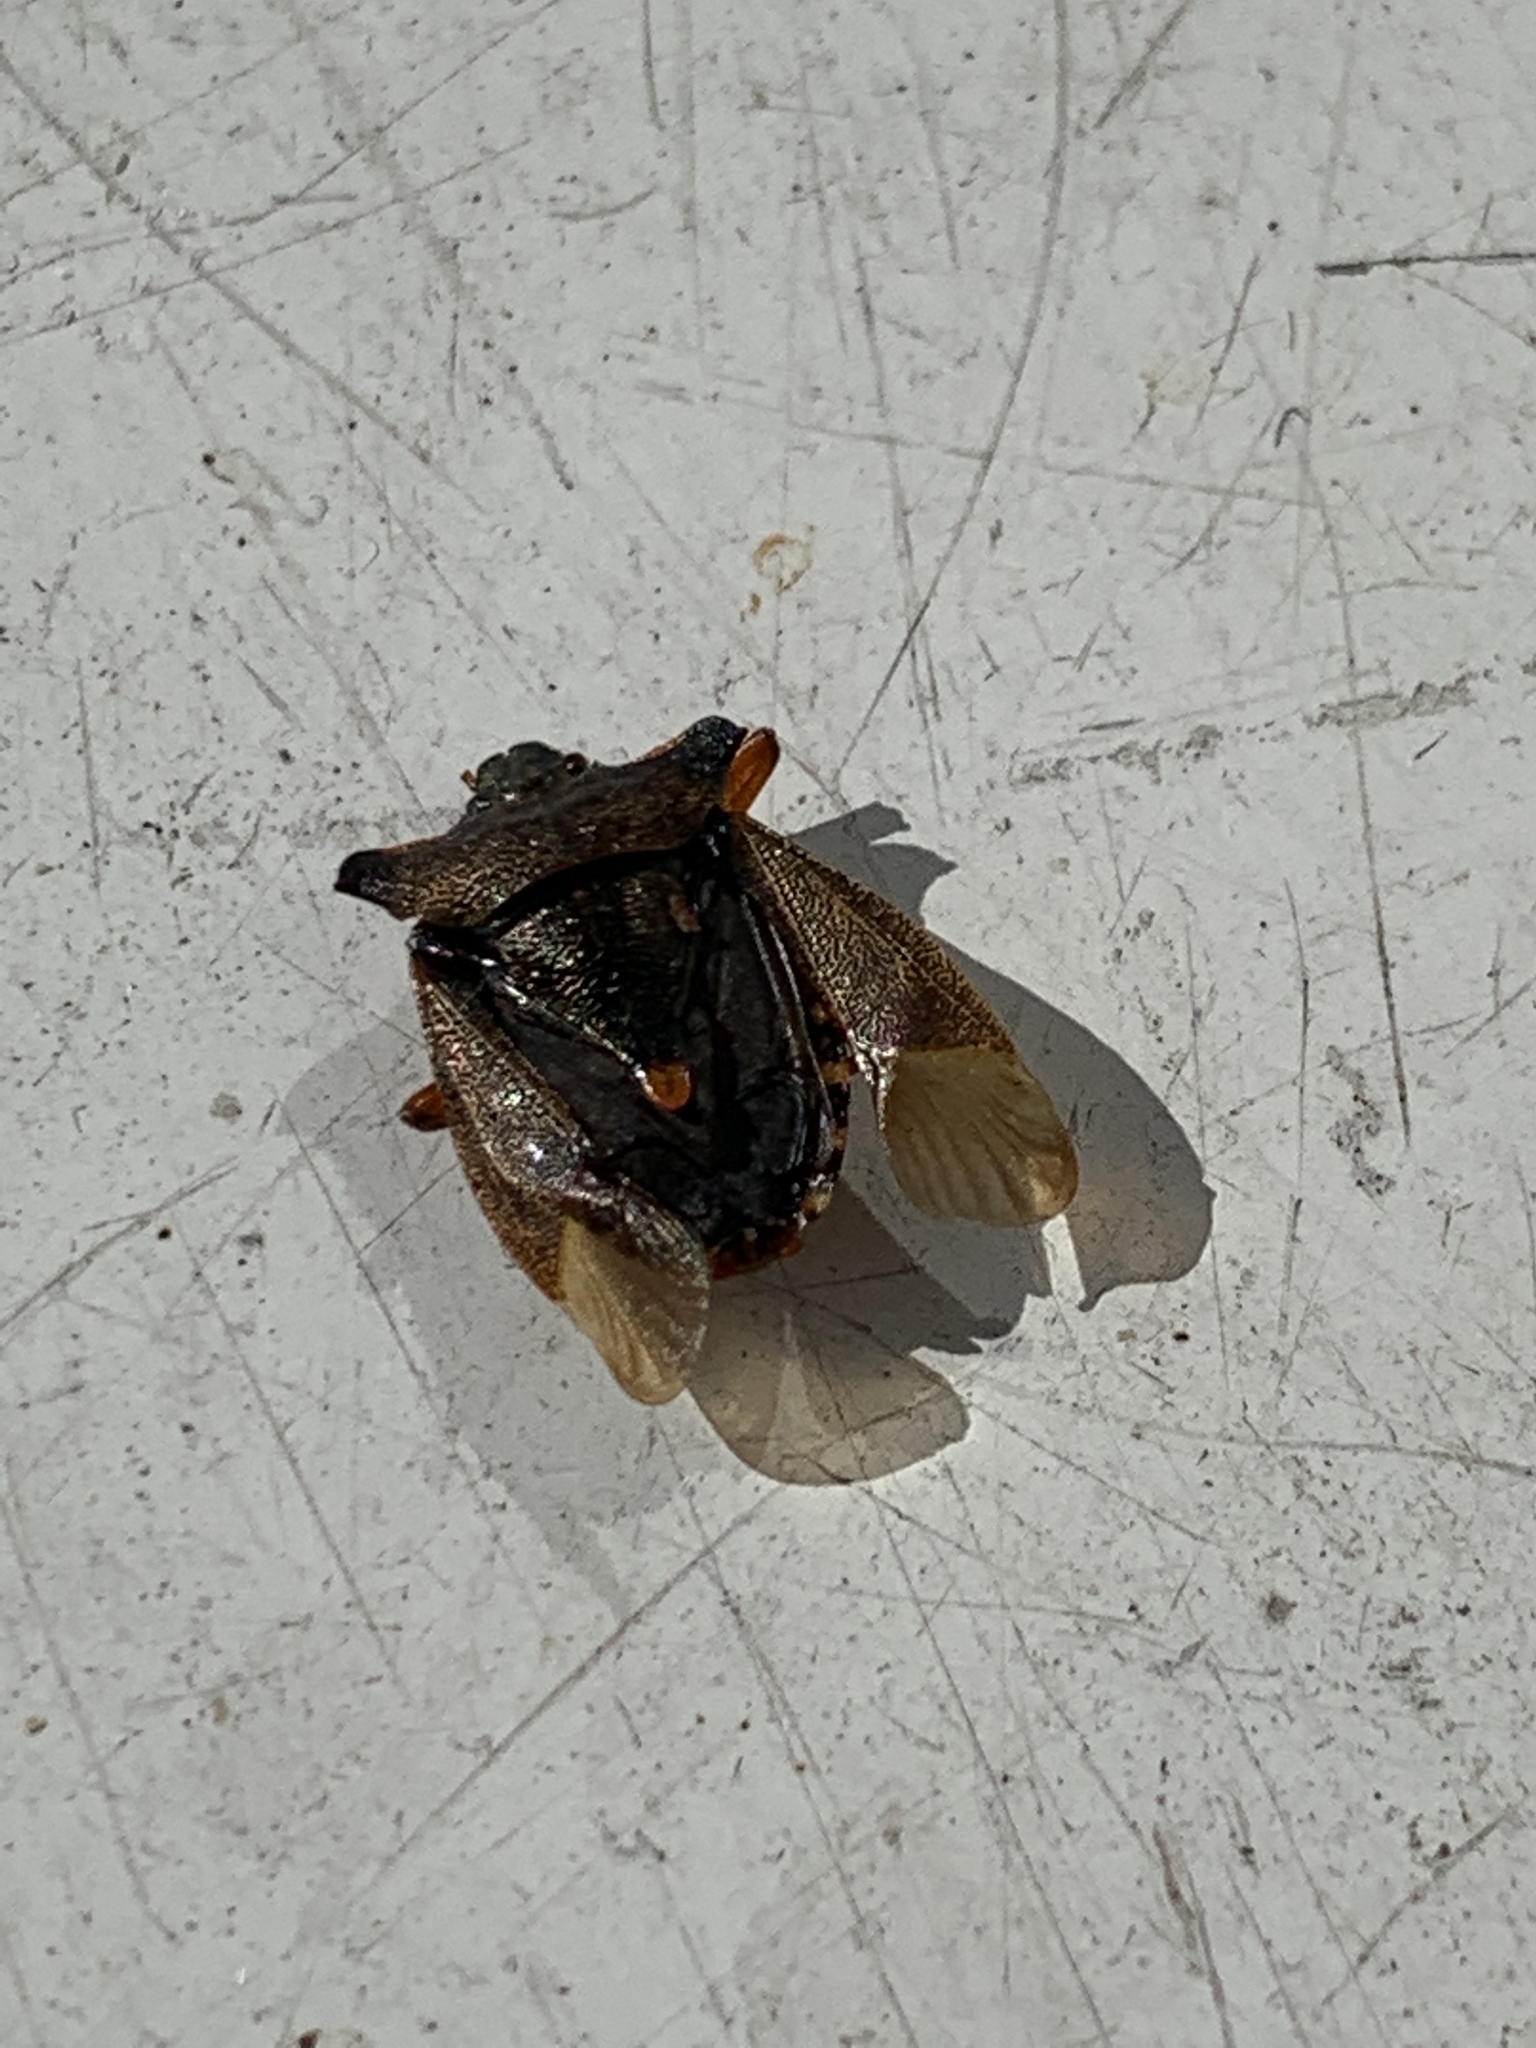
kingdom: Animalia
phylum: Arthropoda
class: Insecta
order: Hemiptera
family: Pentatomidae
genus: Pentatoma
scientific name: Pentatoma rufipes
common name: Forest bug
